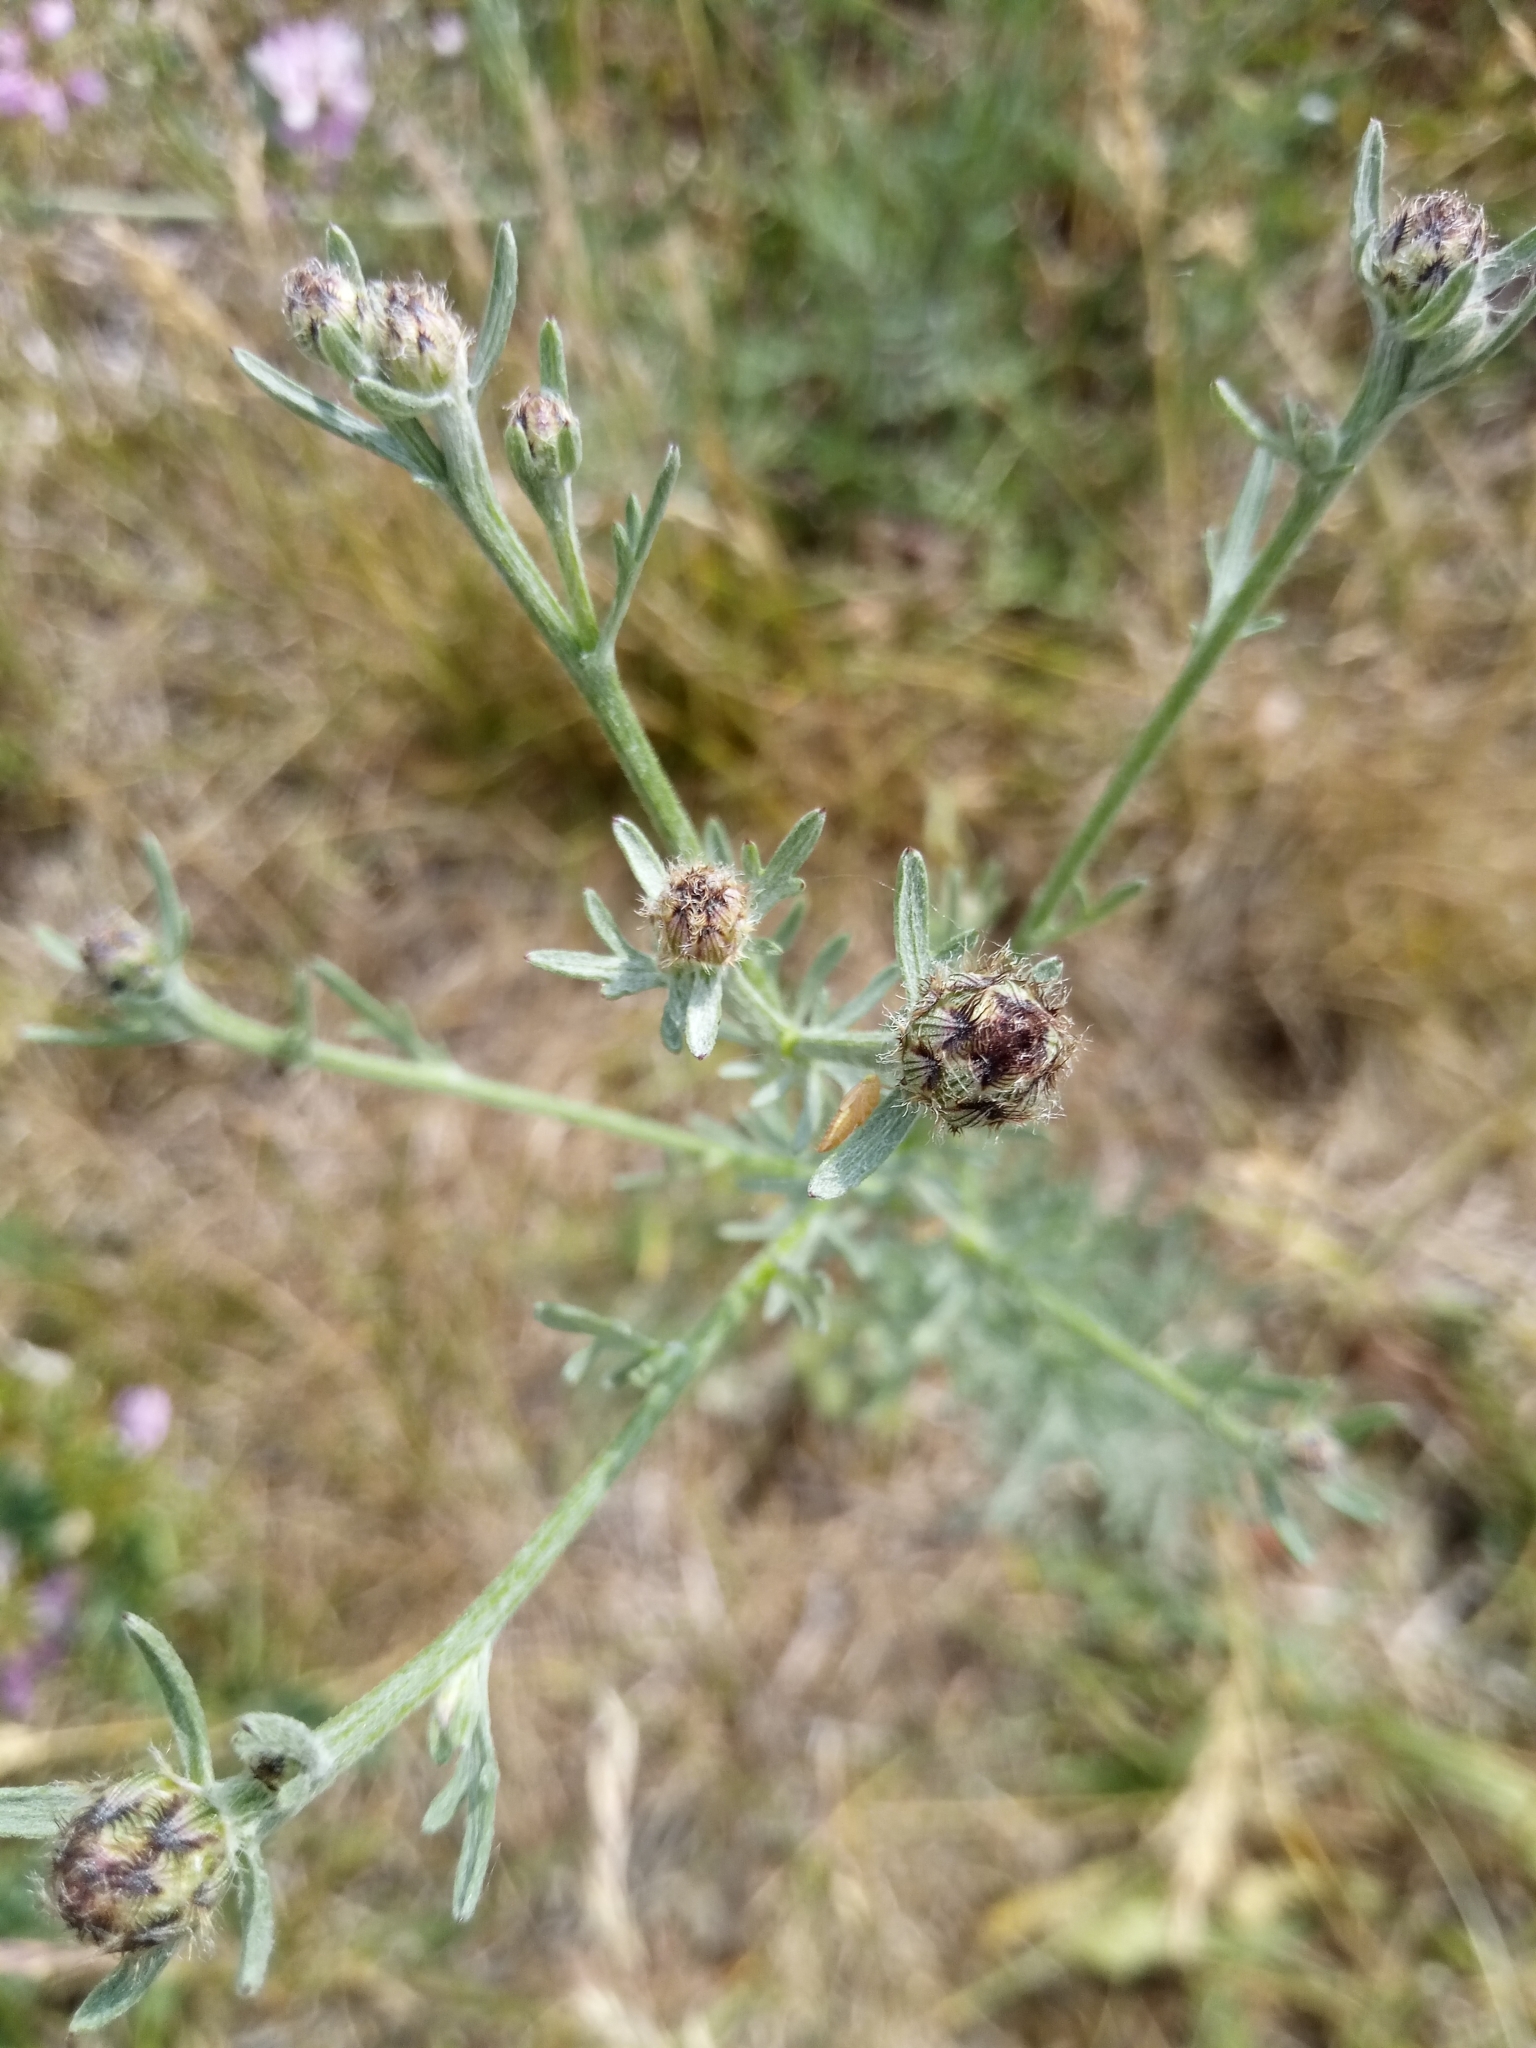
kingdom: Plantae
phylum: Tracheophyta
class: Magnoliopsida
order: Asterales
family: Asteraceae
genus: Centaurea
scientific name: Centaurea stoebe
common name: Spotted knapweed
